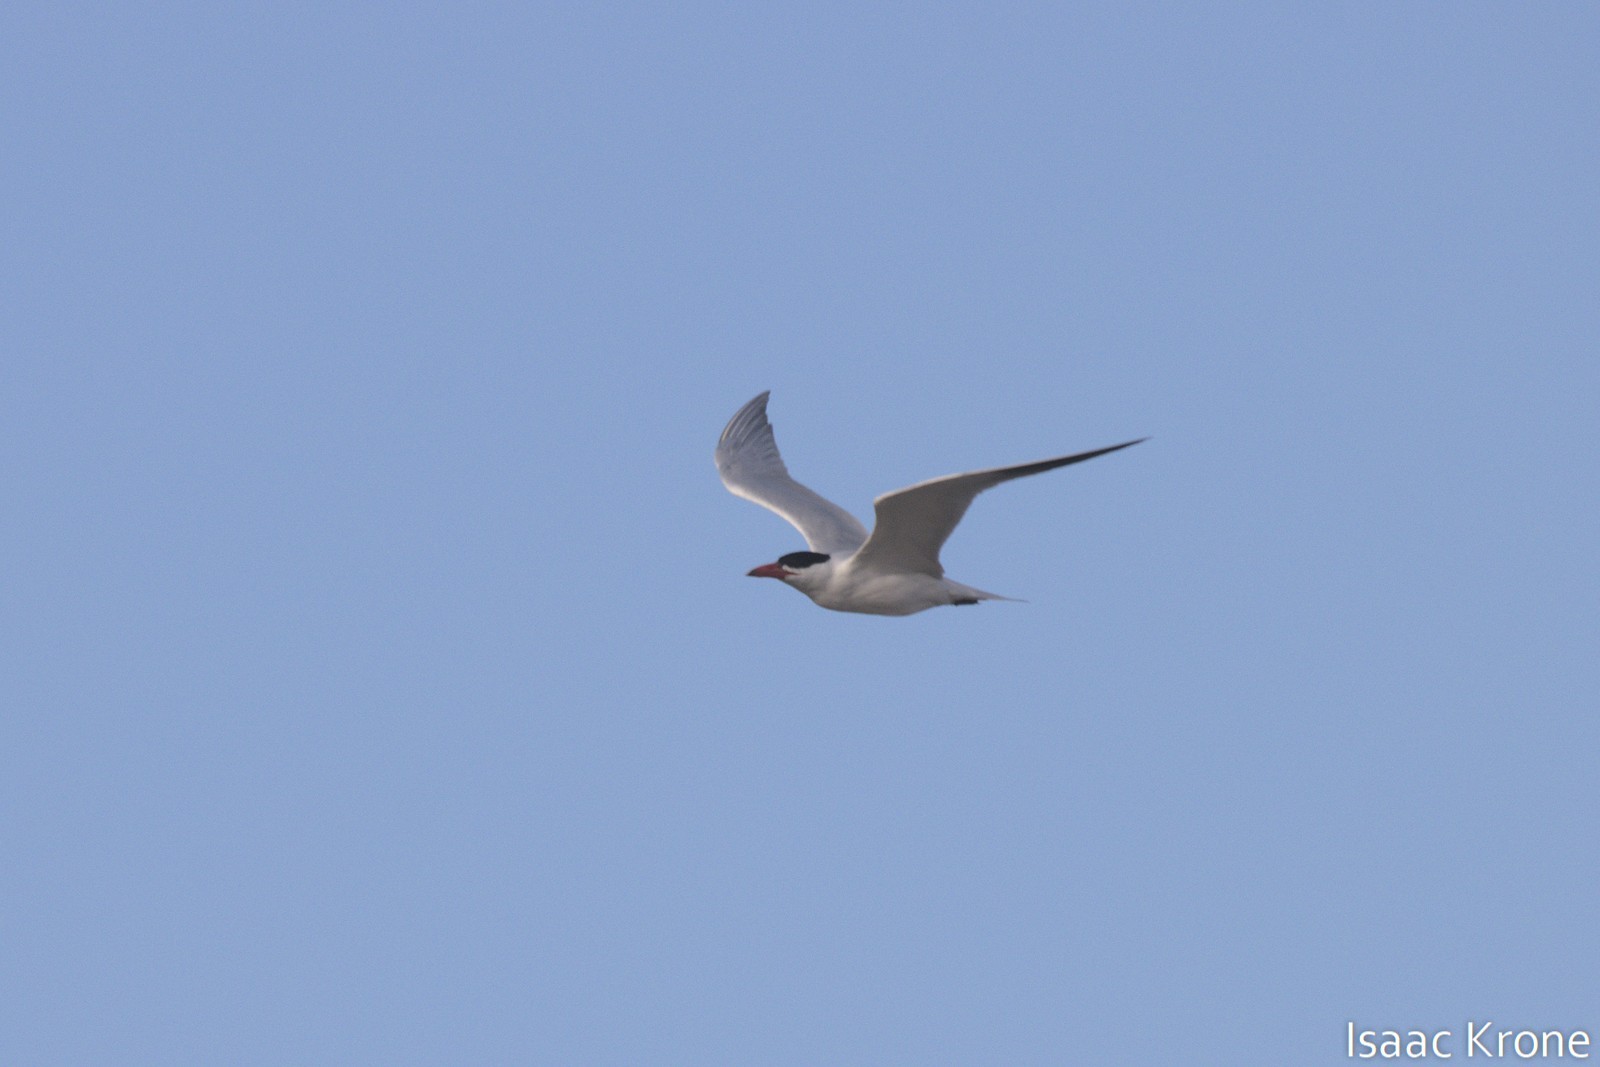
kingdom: Animalia
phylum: Chordata
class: Aves
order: Charadriiformes
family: Laridae
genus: Hydroprogne
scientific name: Hydroprogne caspia
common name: Caspian tern
